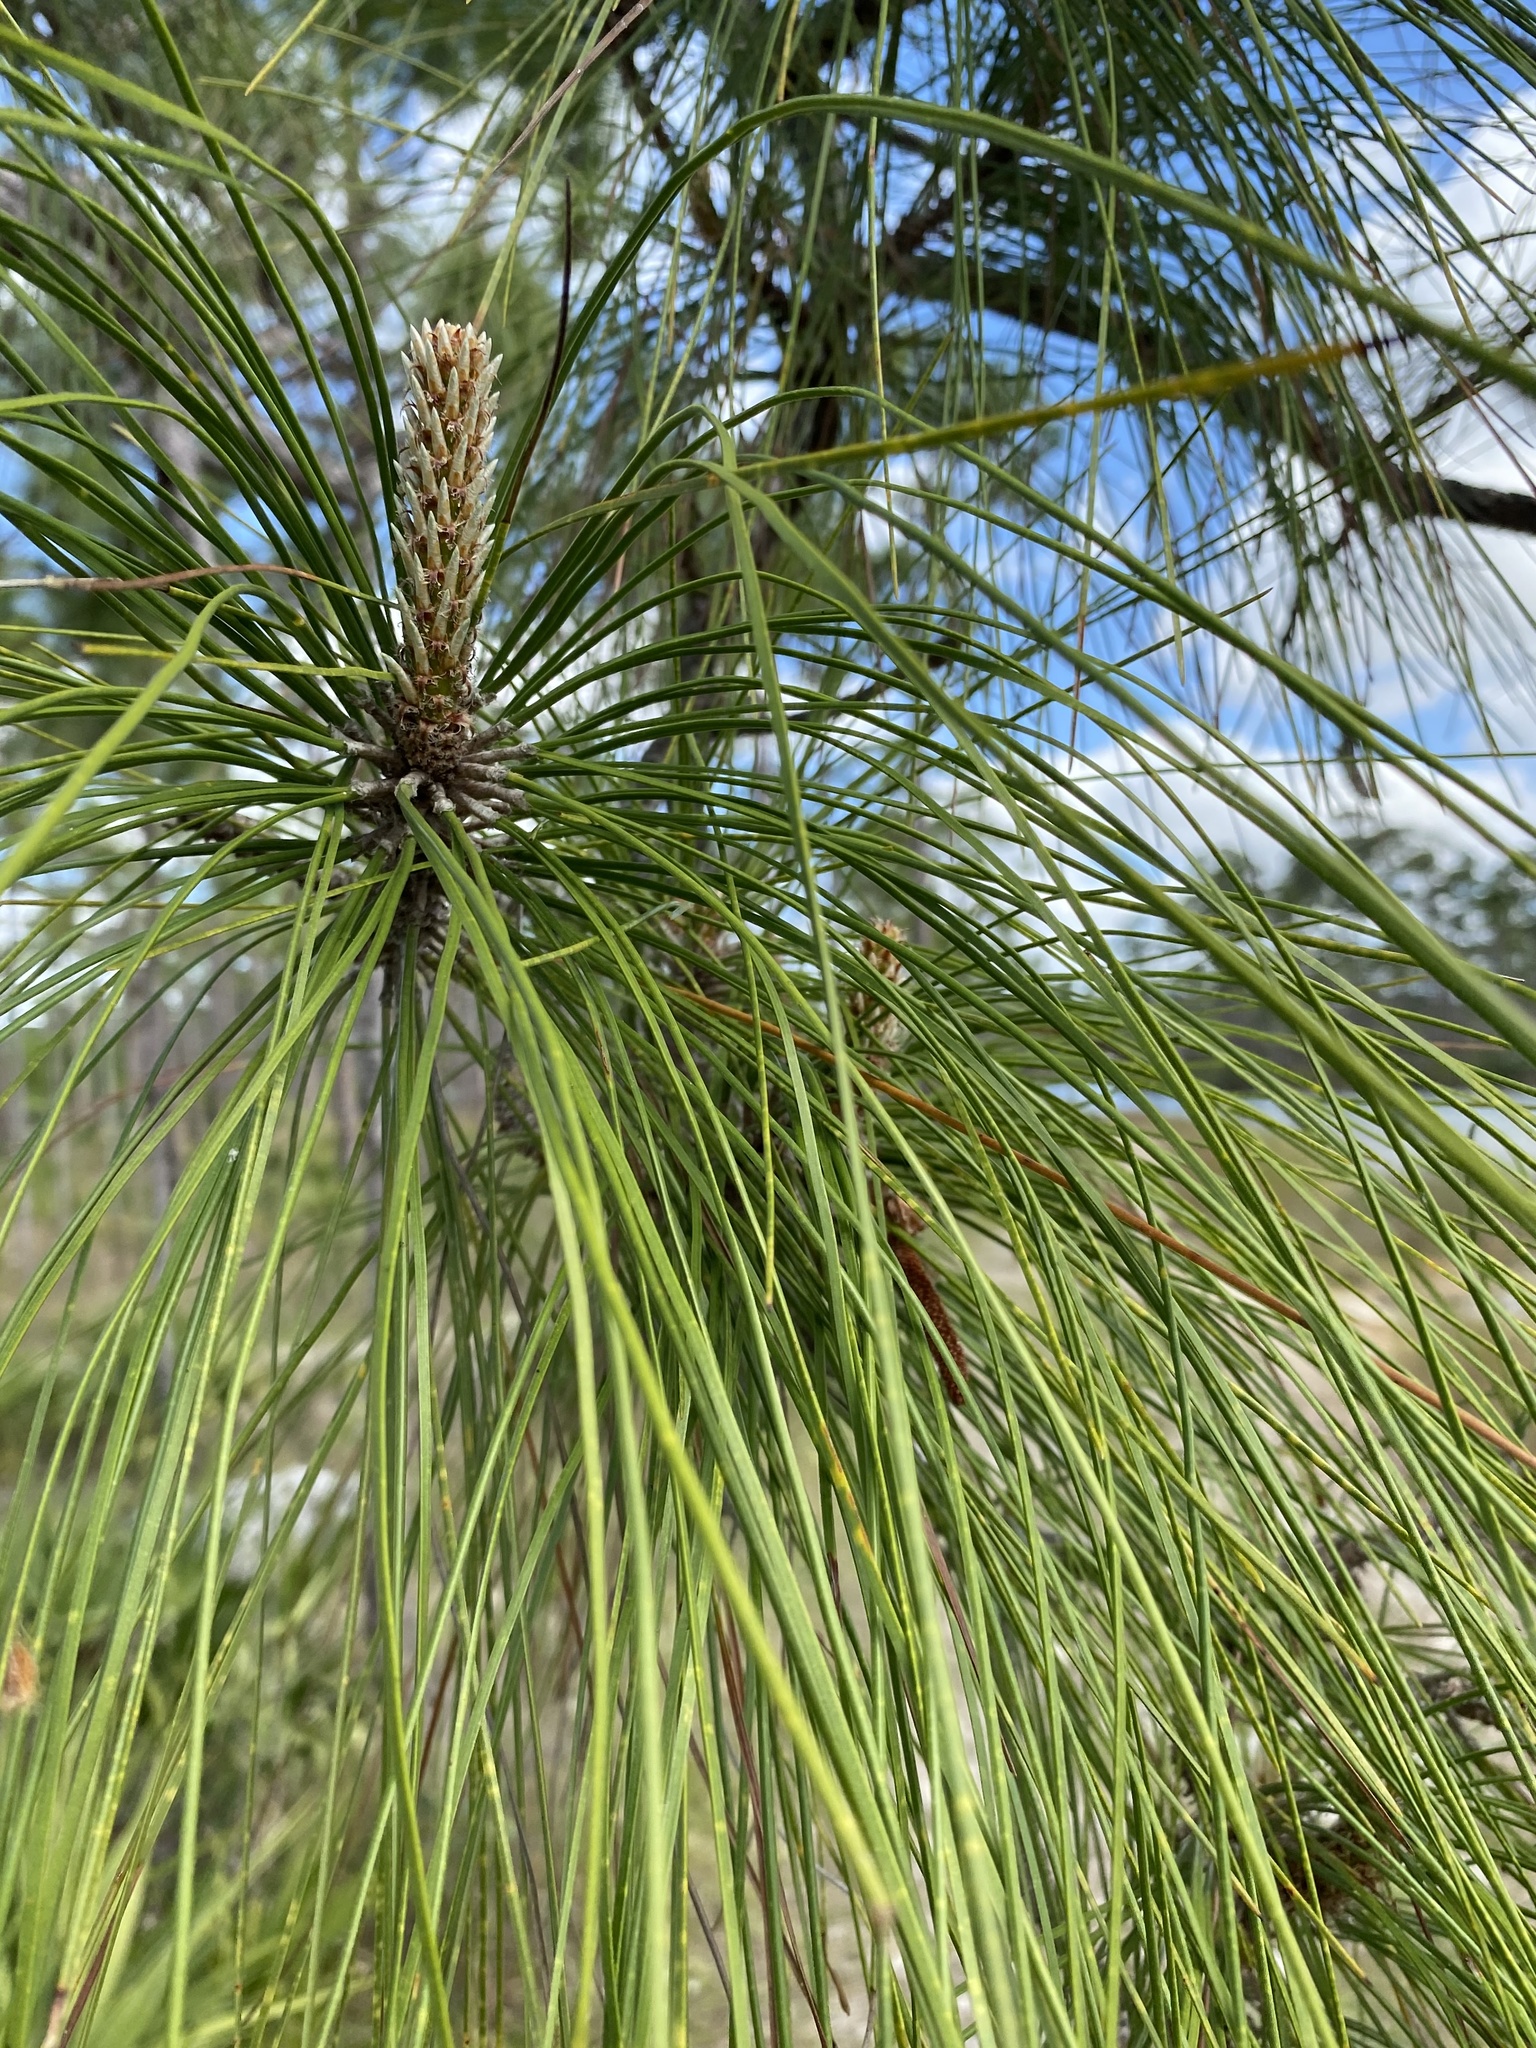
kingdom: Plantae
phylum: Tracheophyta
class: Pinopsida
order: Pinales
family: Pinaceae
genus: Pinus
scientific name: Pinus elliottii
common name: Slash pine
